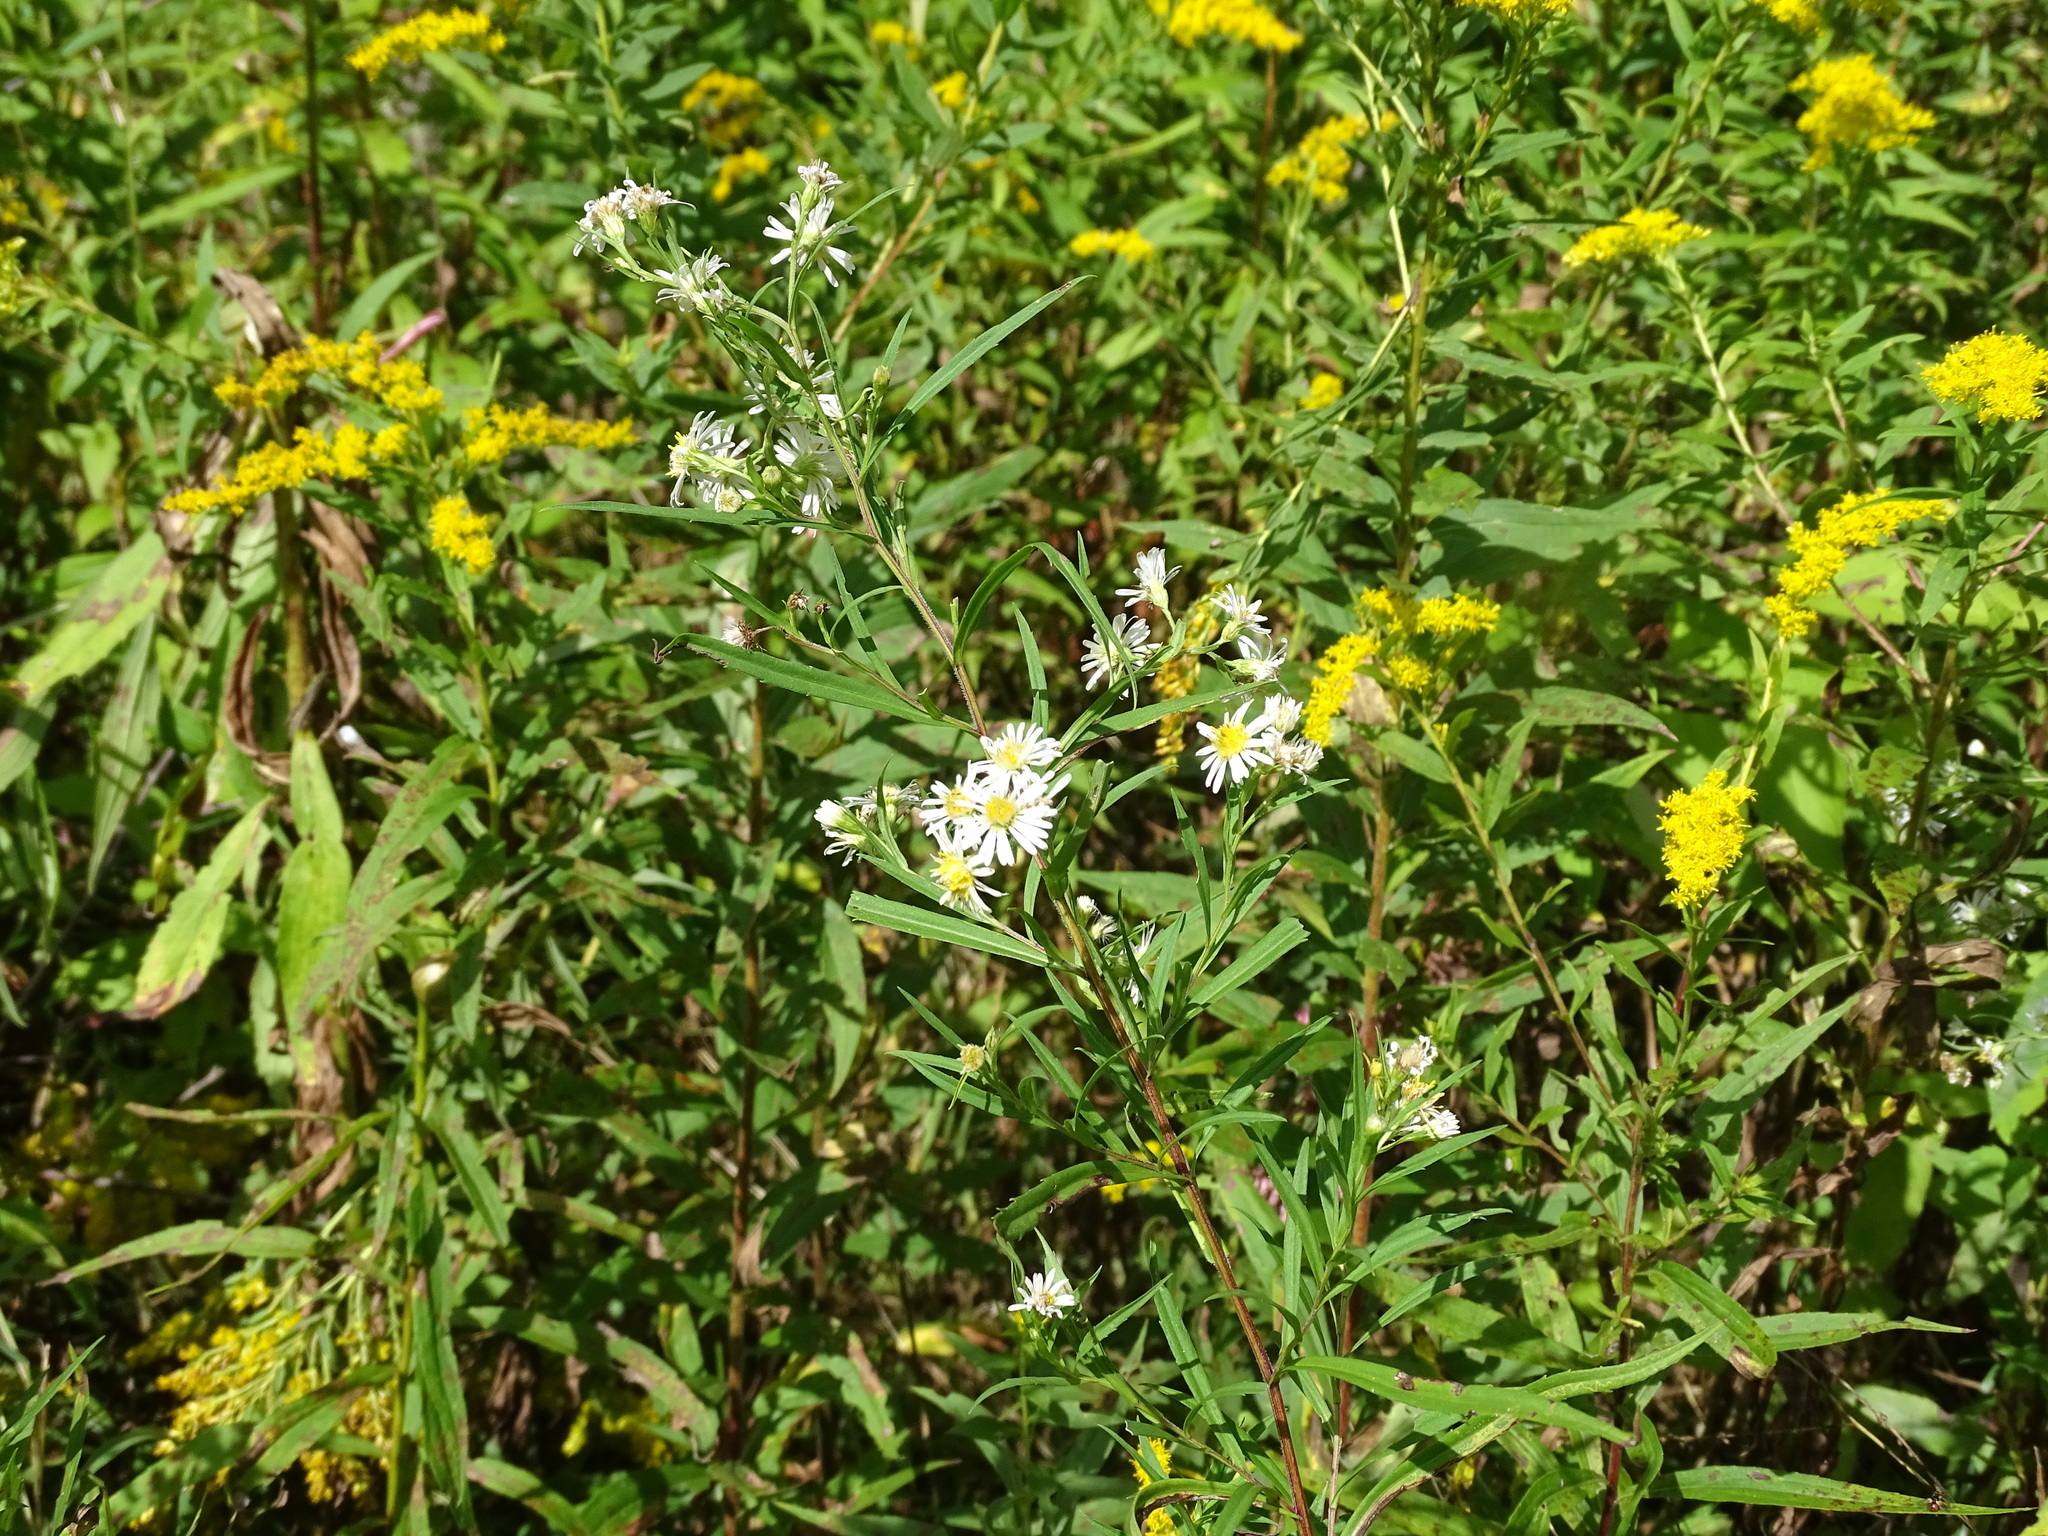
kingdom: Plantae
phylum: Tracheophyta
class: Magnoliopsida
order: Asterales
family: Asteraceae
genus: Symphyotrichum
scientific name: Symphyotrichum lanceolatum
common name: Panicled aster
